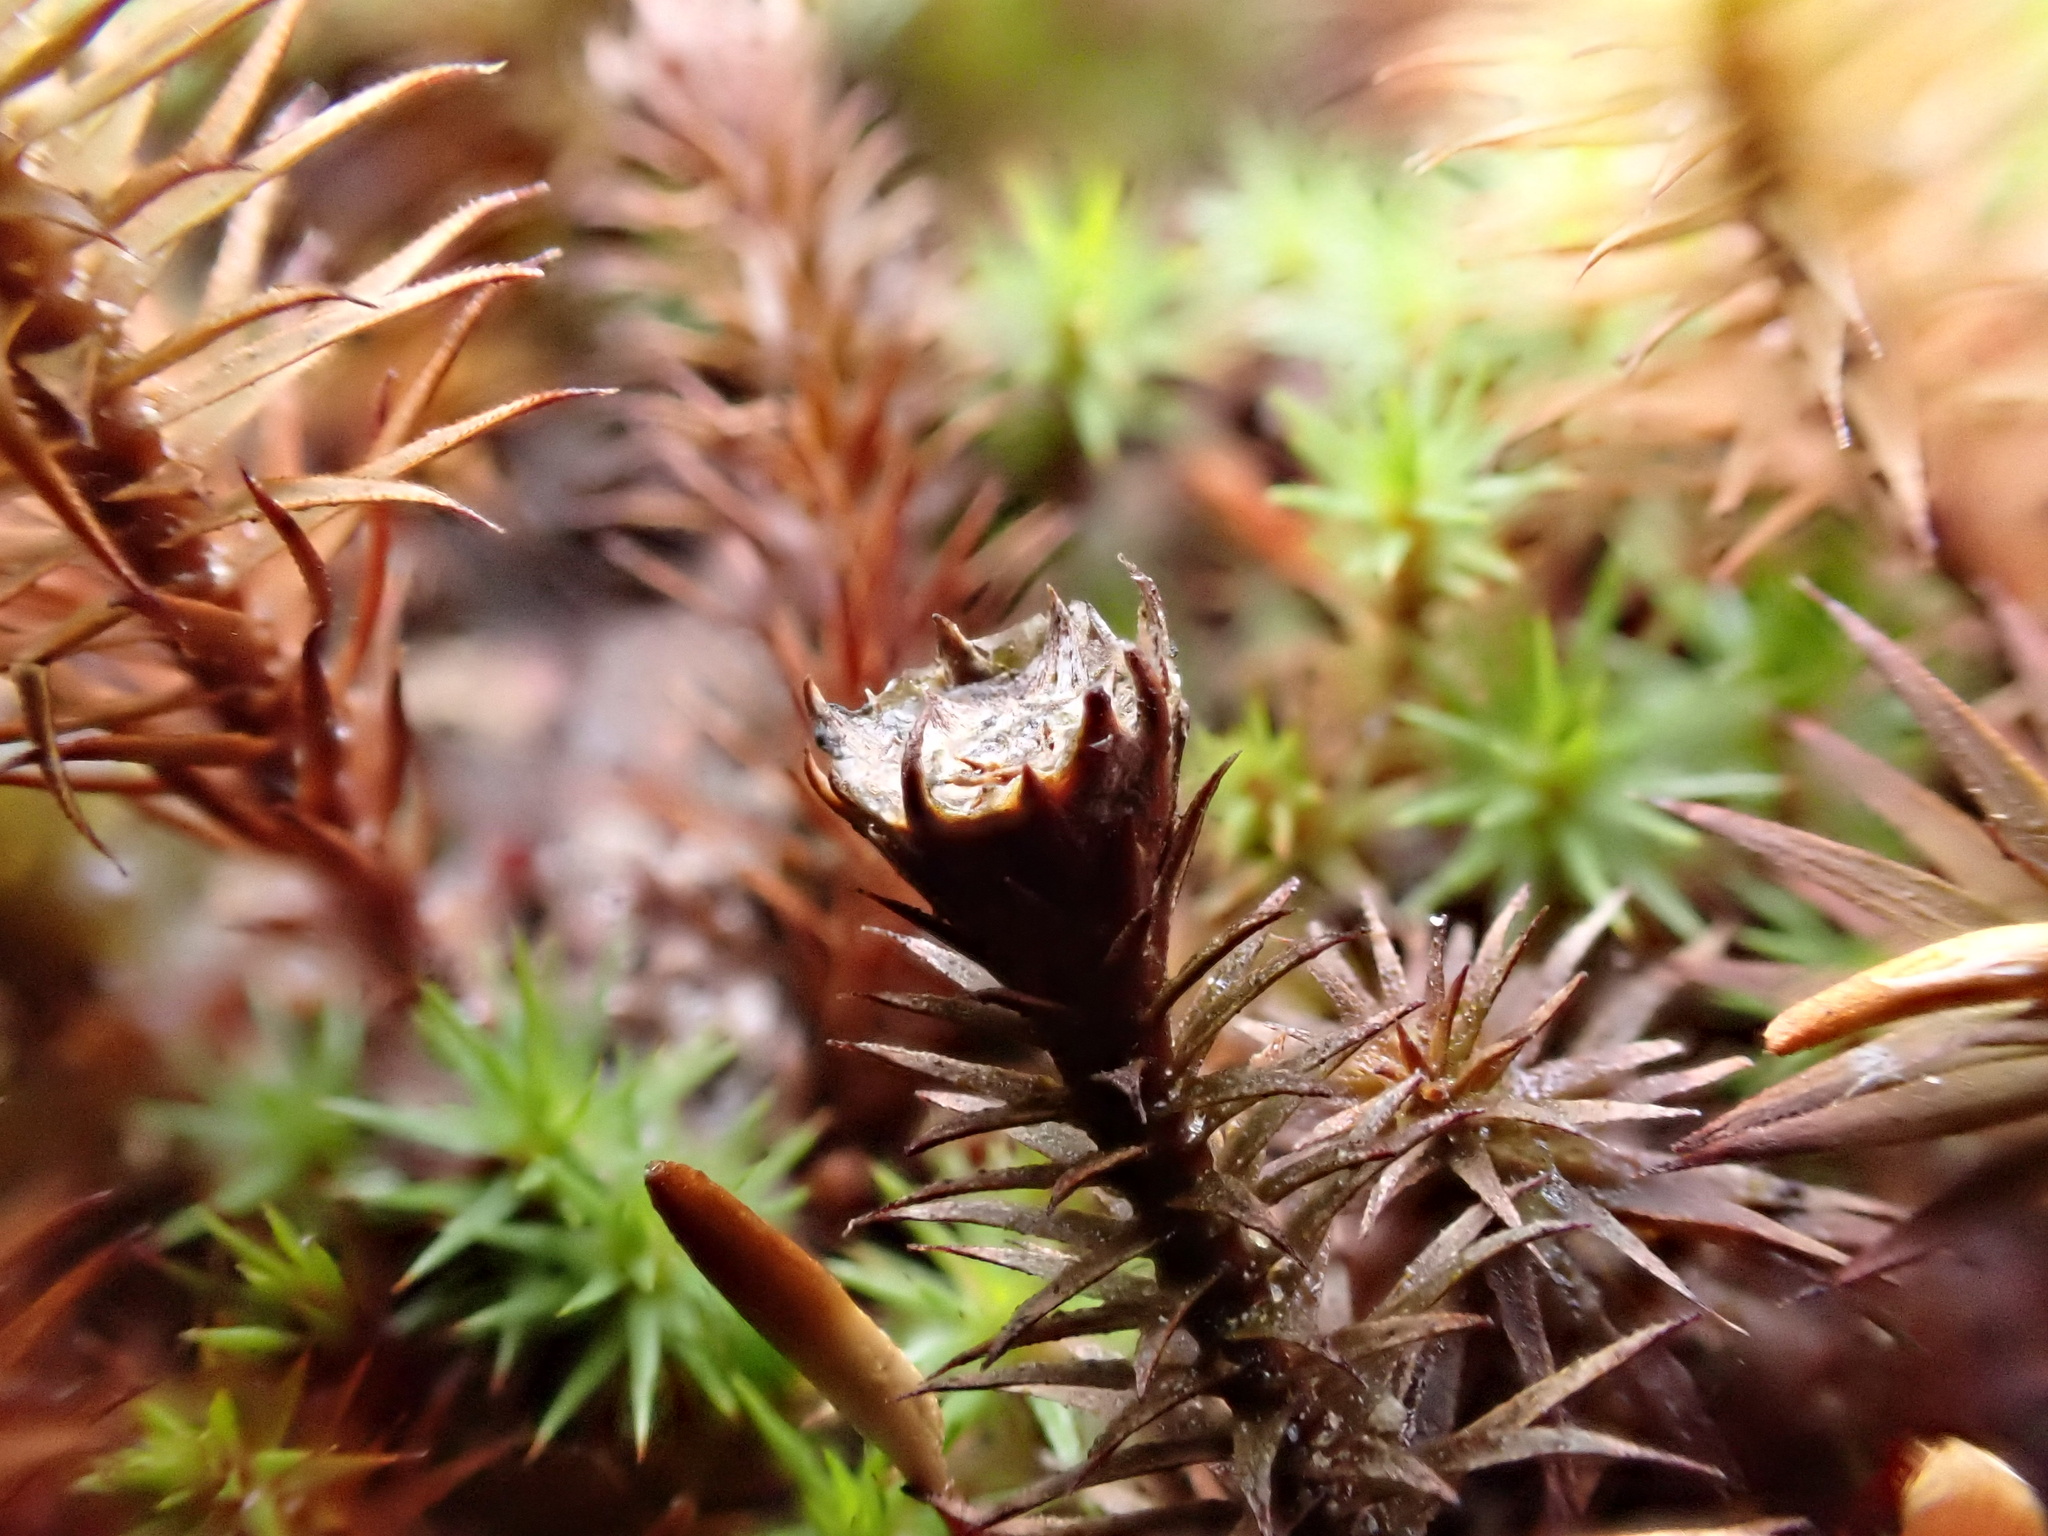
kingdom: Plantae
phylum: Bryophyta
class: Polytrichopsida
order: Polytrichales
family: Polytrichaceae
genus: Polytrichum
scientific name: Polytrichum juniperinum
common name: Juniper haircap moss
